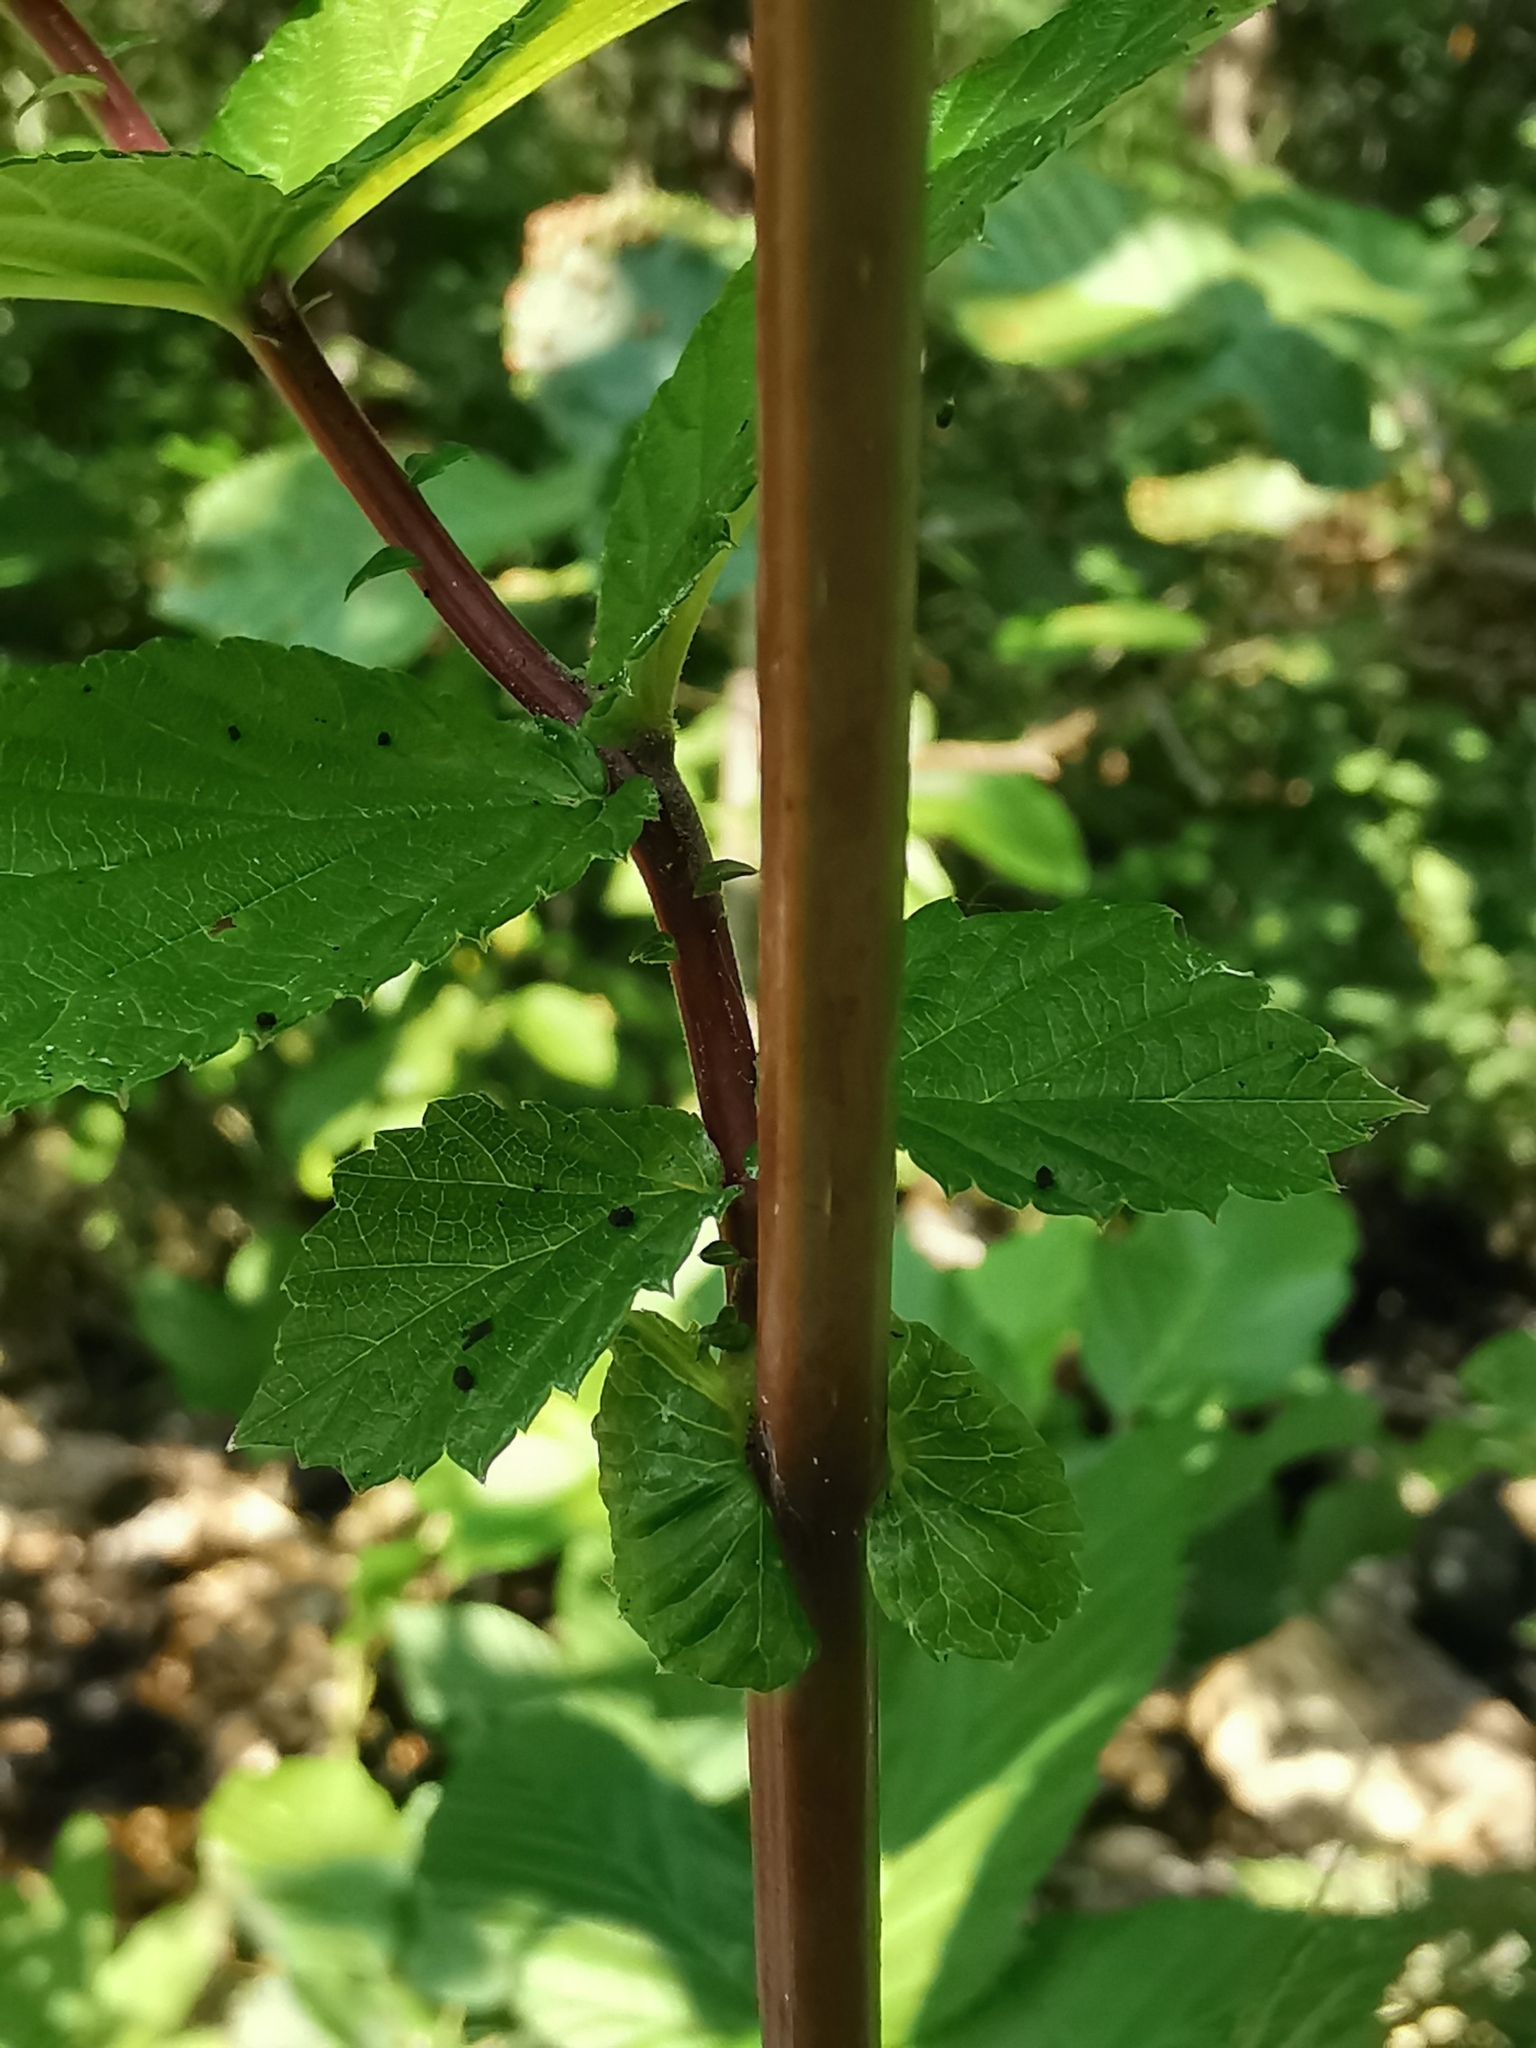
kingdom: Plantae
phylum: Tracheophyta
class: Magnoliopsida
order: Rosales
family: Rosaceae
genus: Filipendula
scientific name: Filipendula ulmaria
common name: Meadowsweet
